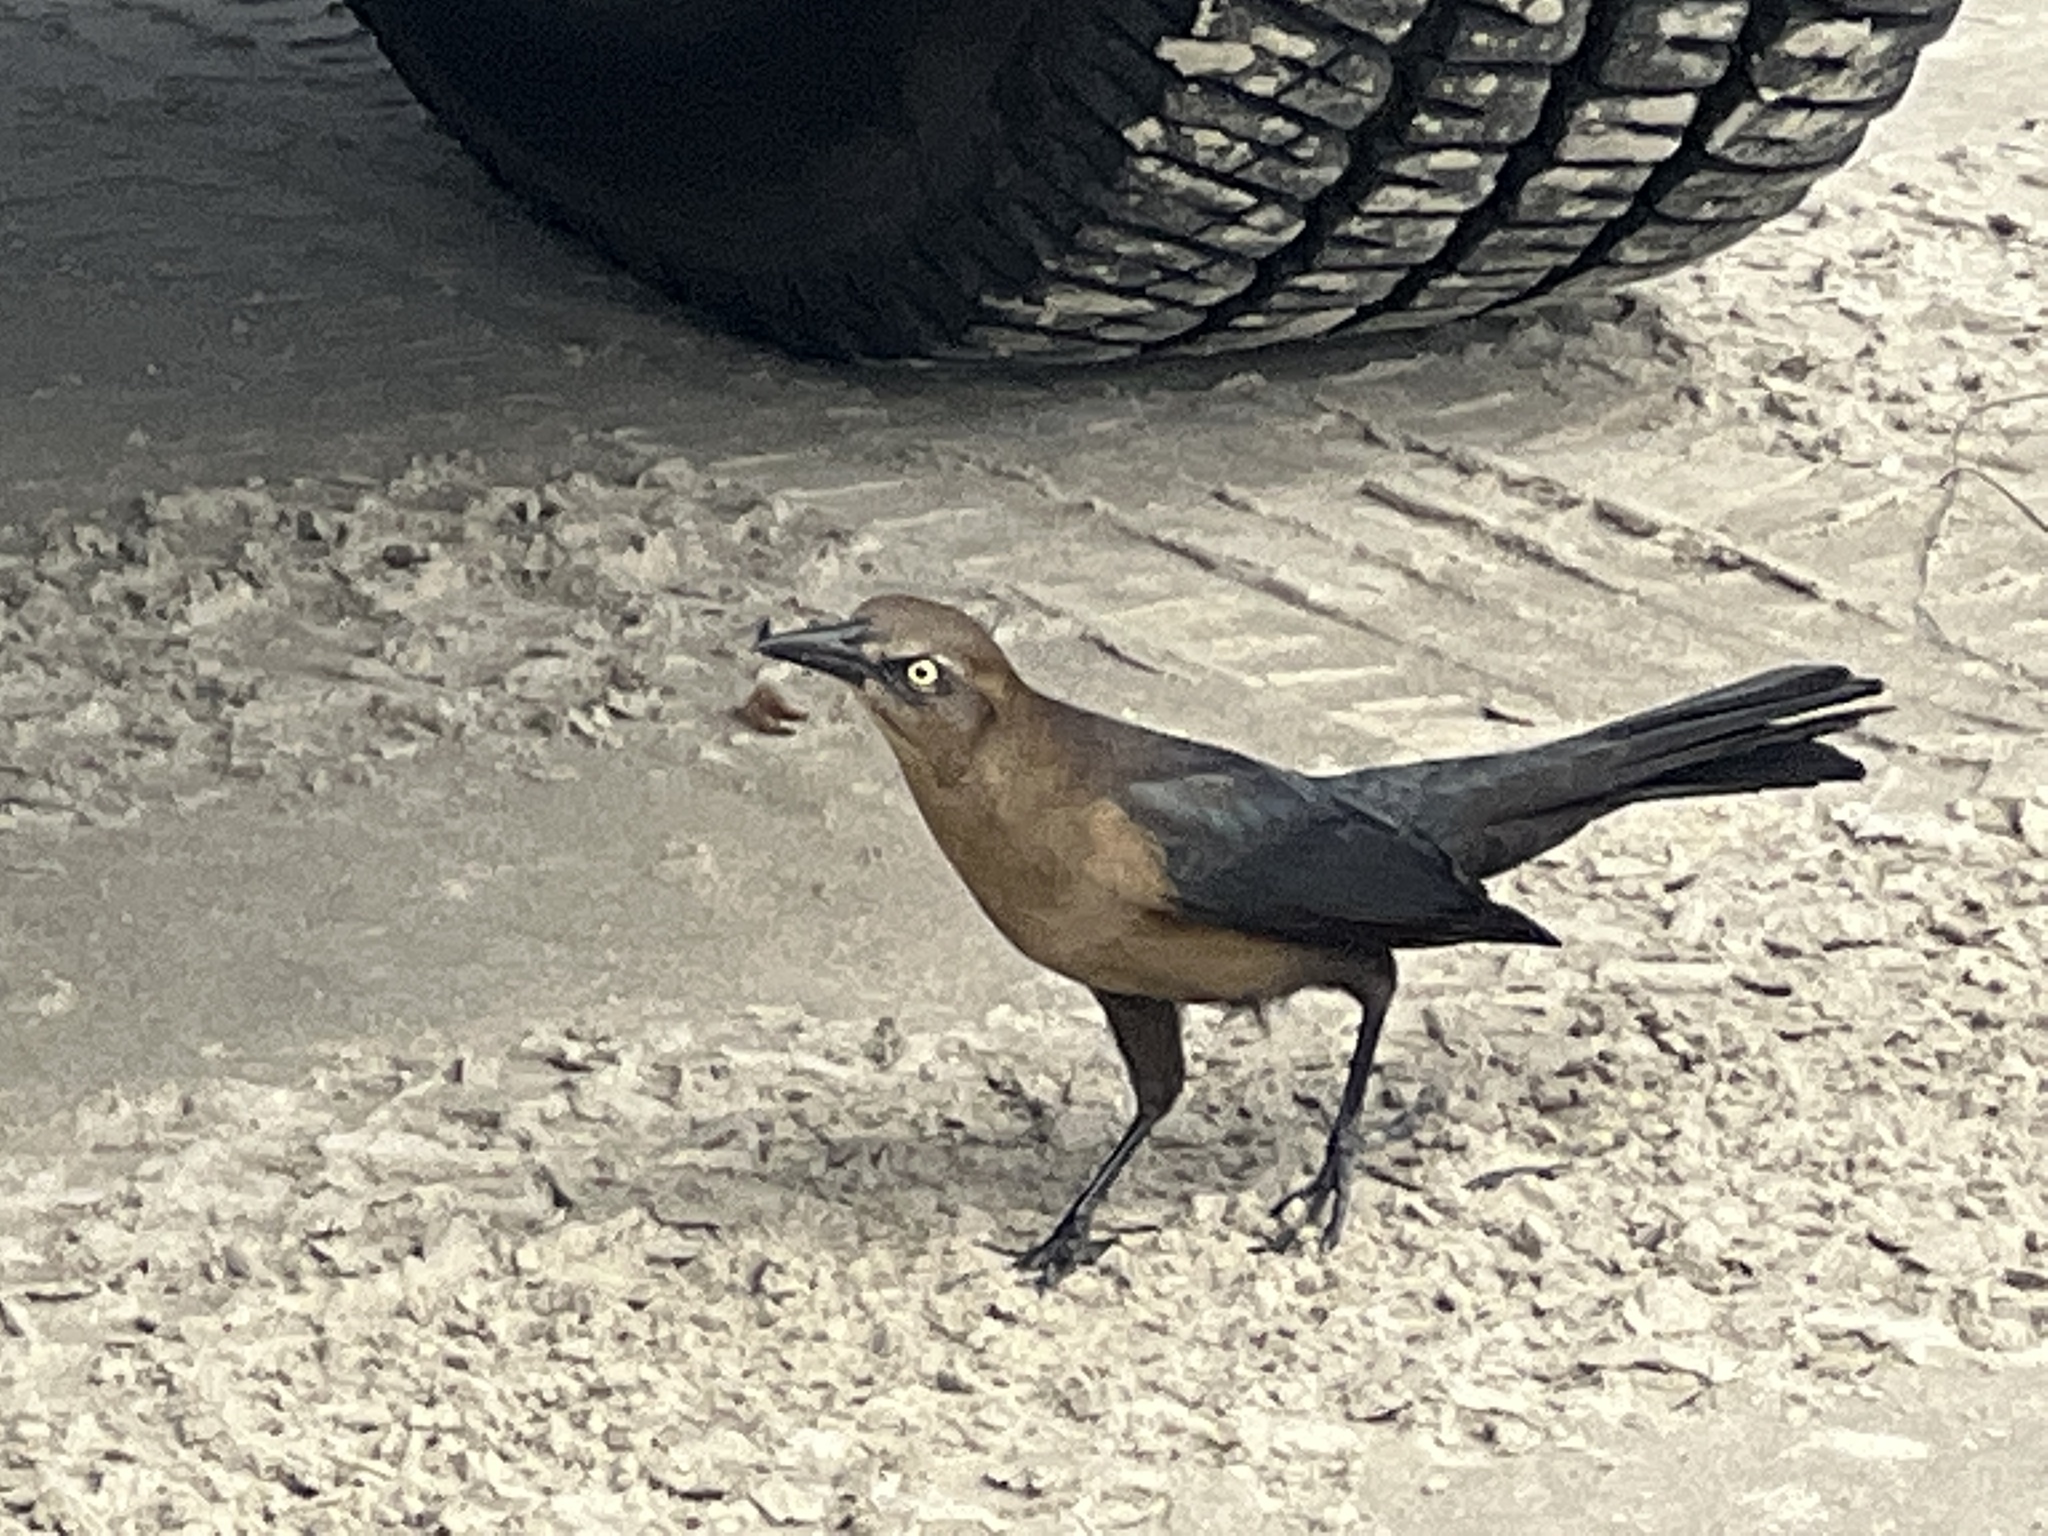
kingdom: Animalia
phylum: Chordata
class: Aves
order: Passeriformes
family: Icteridae
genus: Quiscalus
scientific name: Quiscalus mexicanus
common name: Great-tailed grackle
